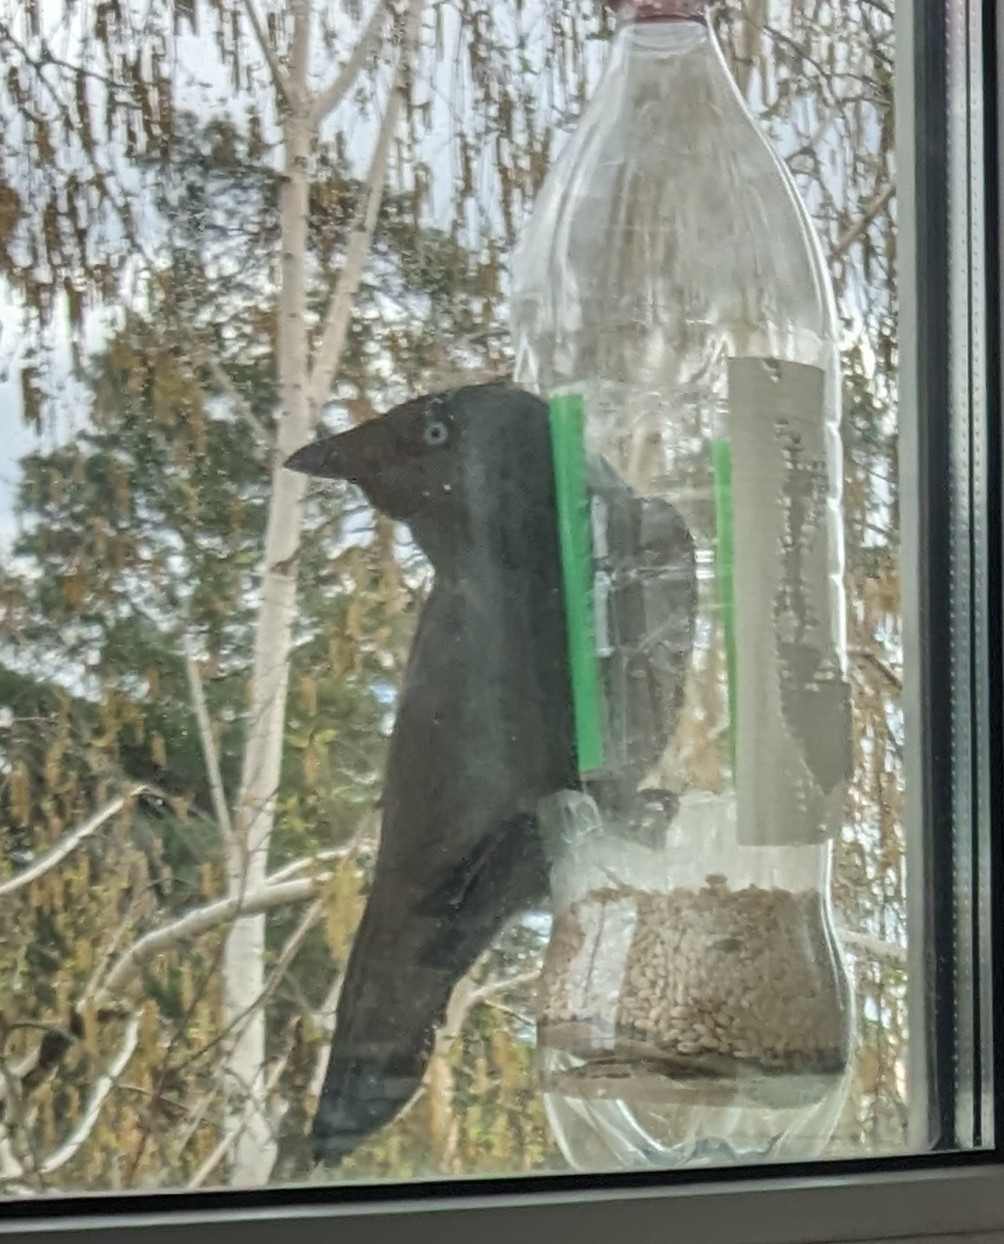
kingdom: Animalia
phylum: Chordata
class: Aves
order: Passeriformes
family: Corvidae
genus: Coloeus
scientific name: Coloeus monedula
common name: Western jackdaw
